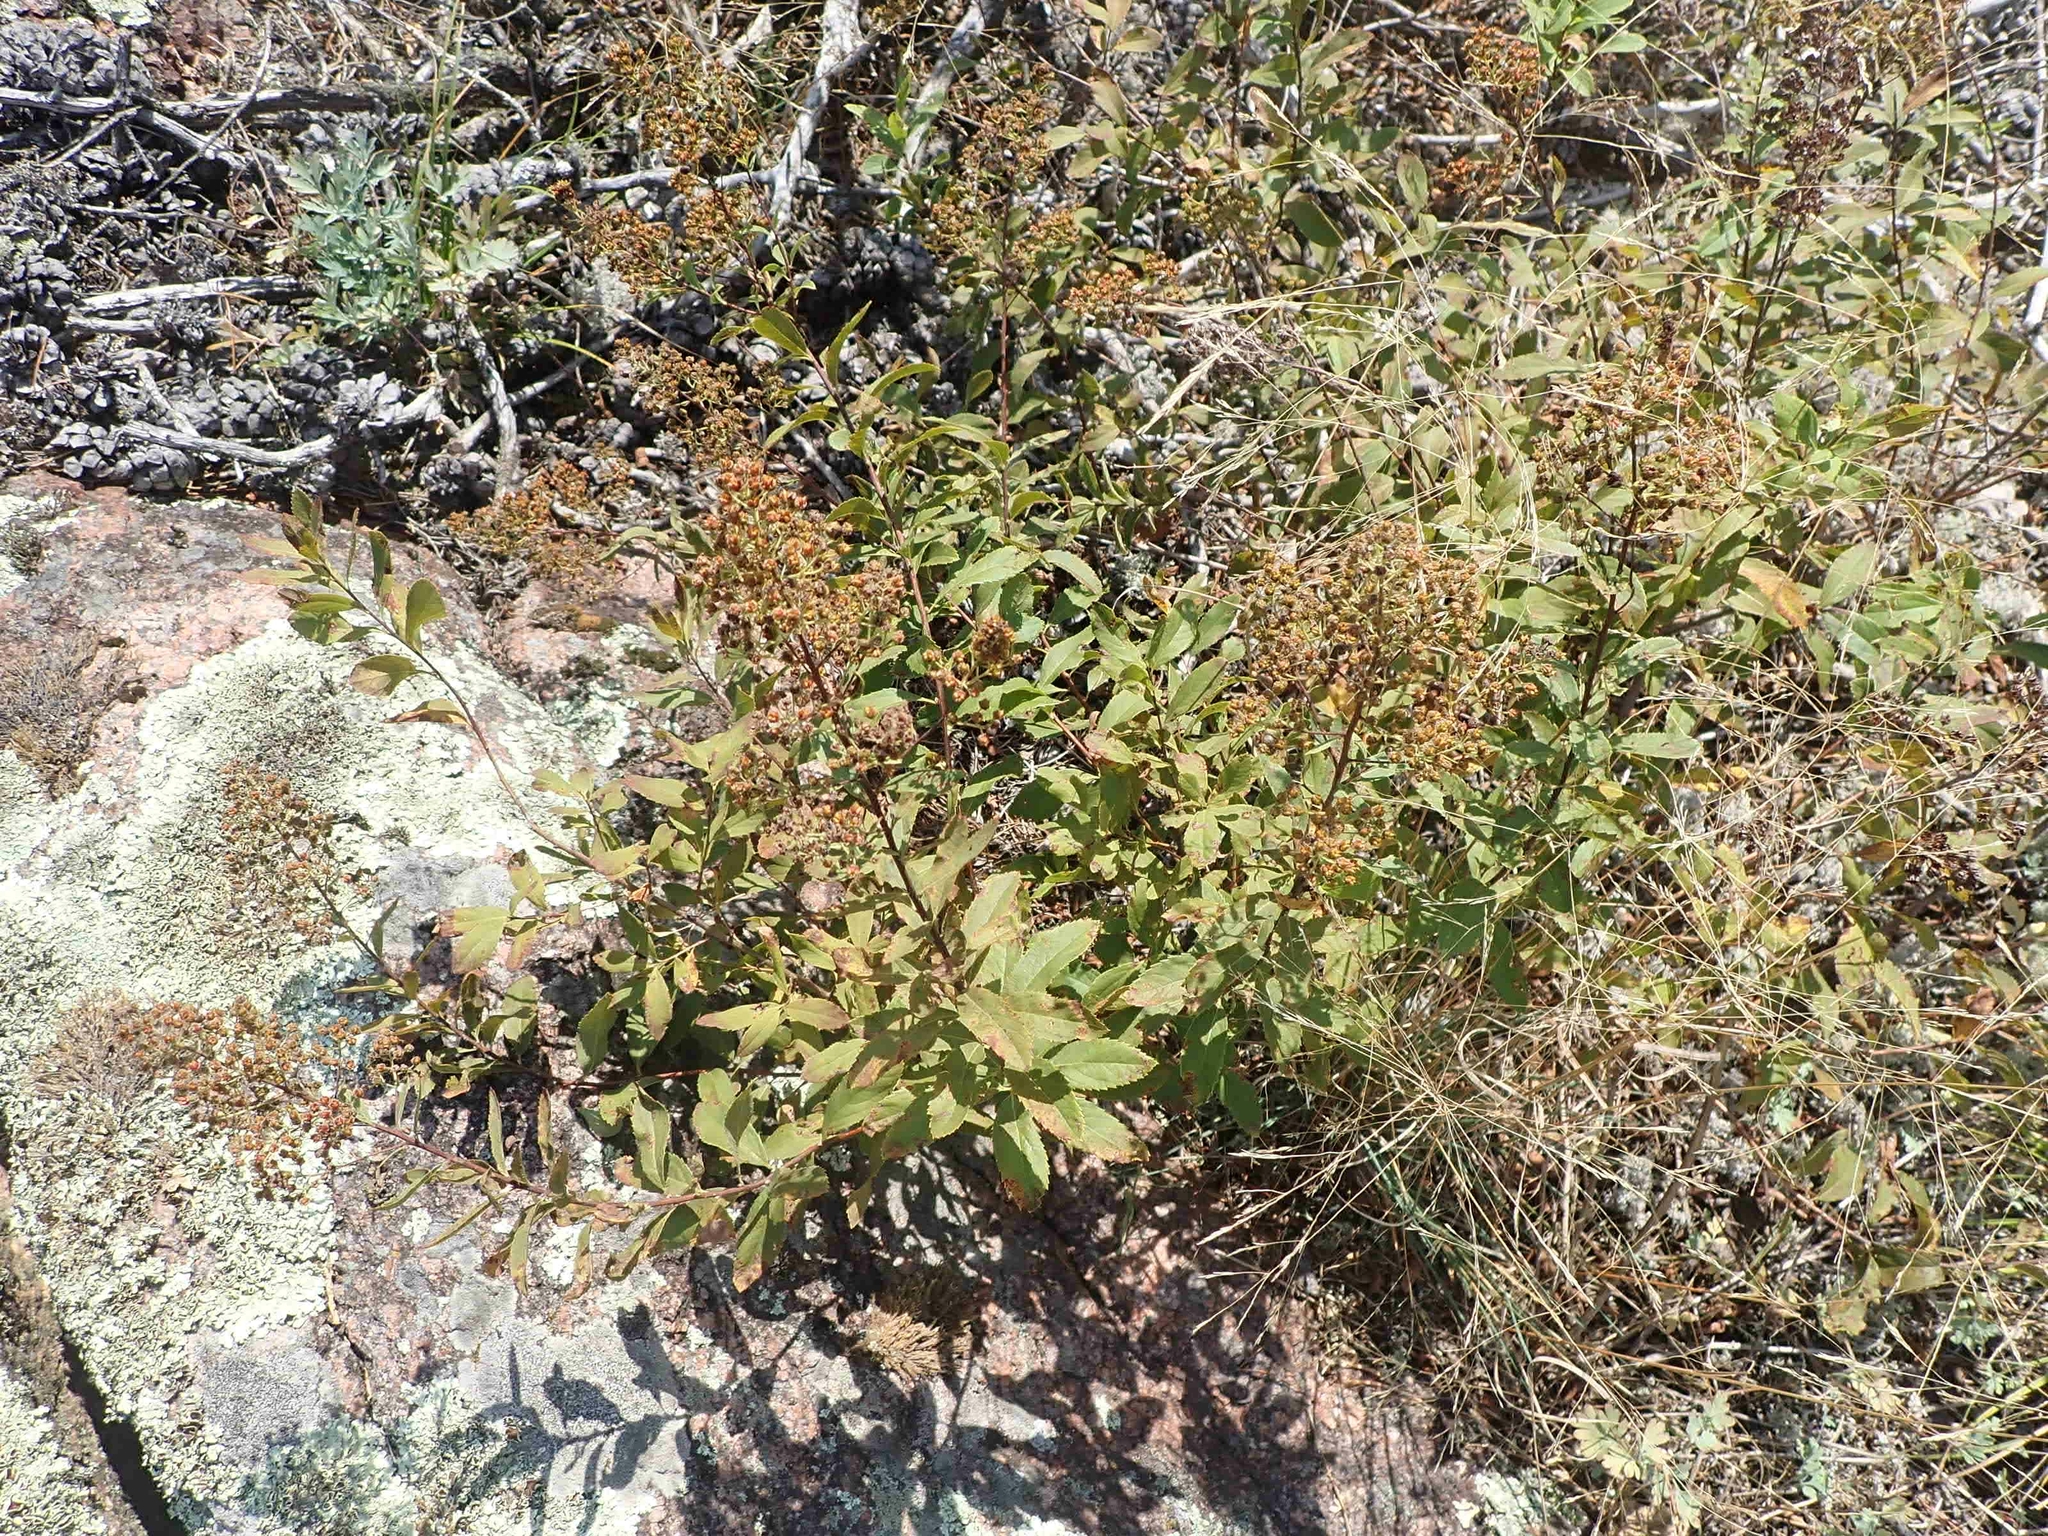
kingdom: Plantae
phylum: Tracheophyta
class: Magnoliopsida
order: Rosales
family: Rosaceae
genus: Spiraea
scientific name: Spiraea alba
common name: Pale bridewort
